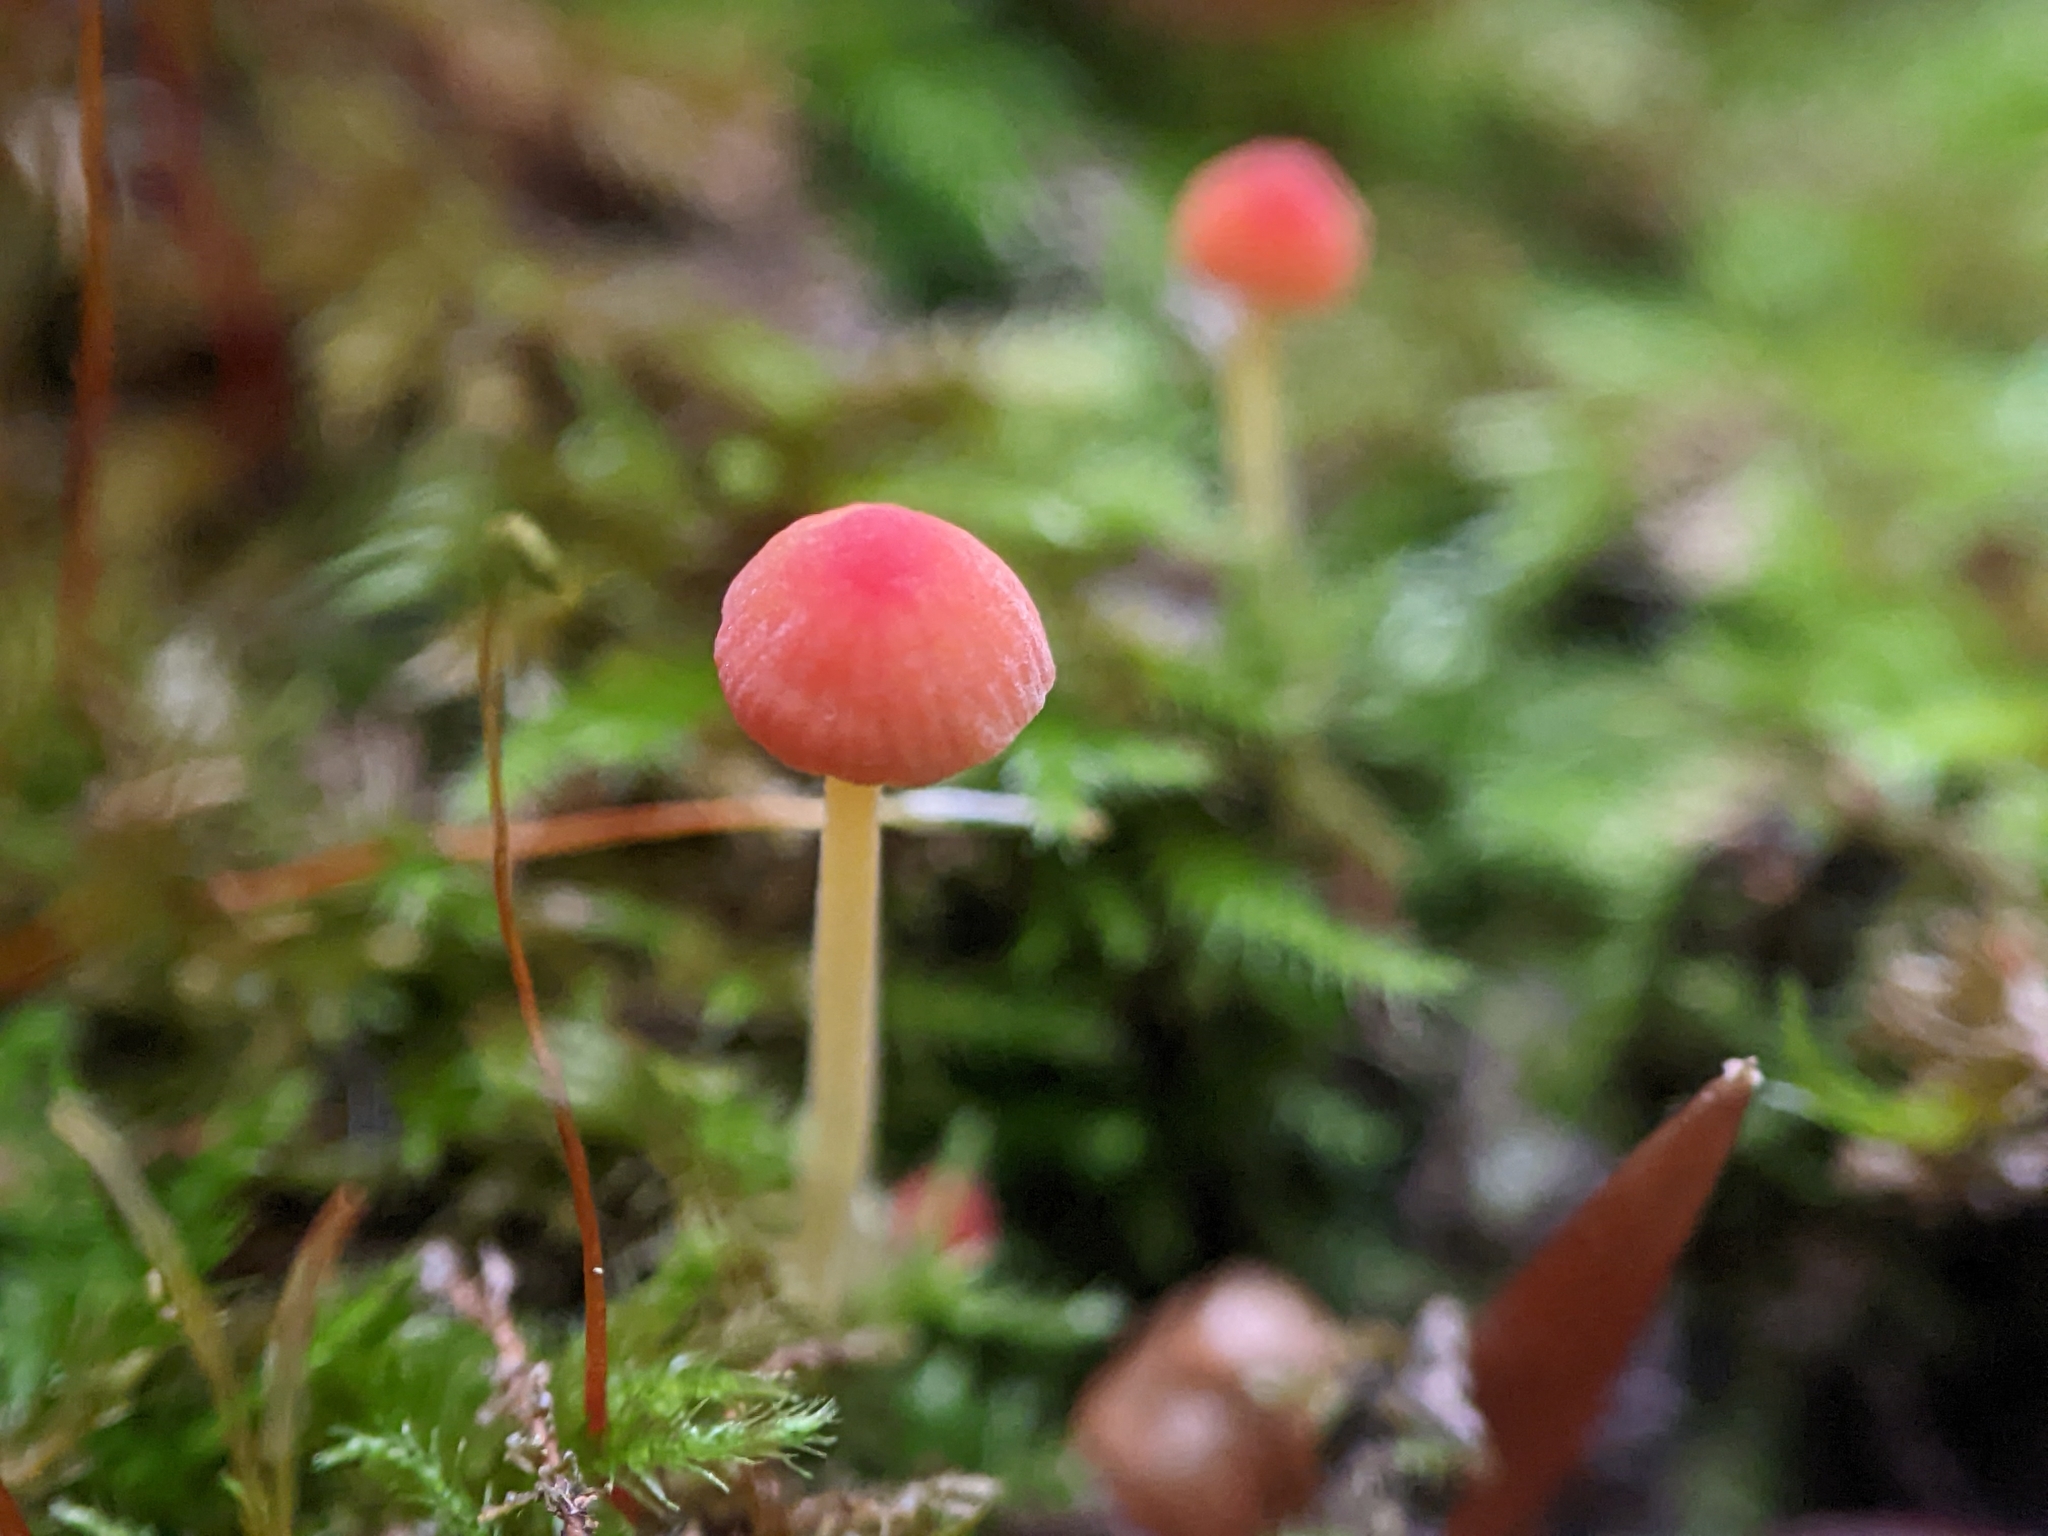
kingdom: Fungi
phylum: Basidiomycota
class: Agaricomycetes
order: Agaricales
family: Mycenaceae
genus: Mycena
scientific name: Mycena acicula
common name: Orange bonnet
